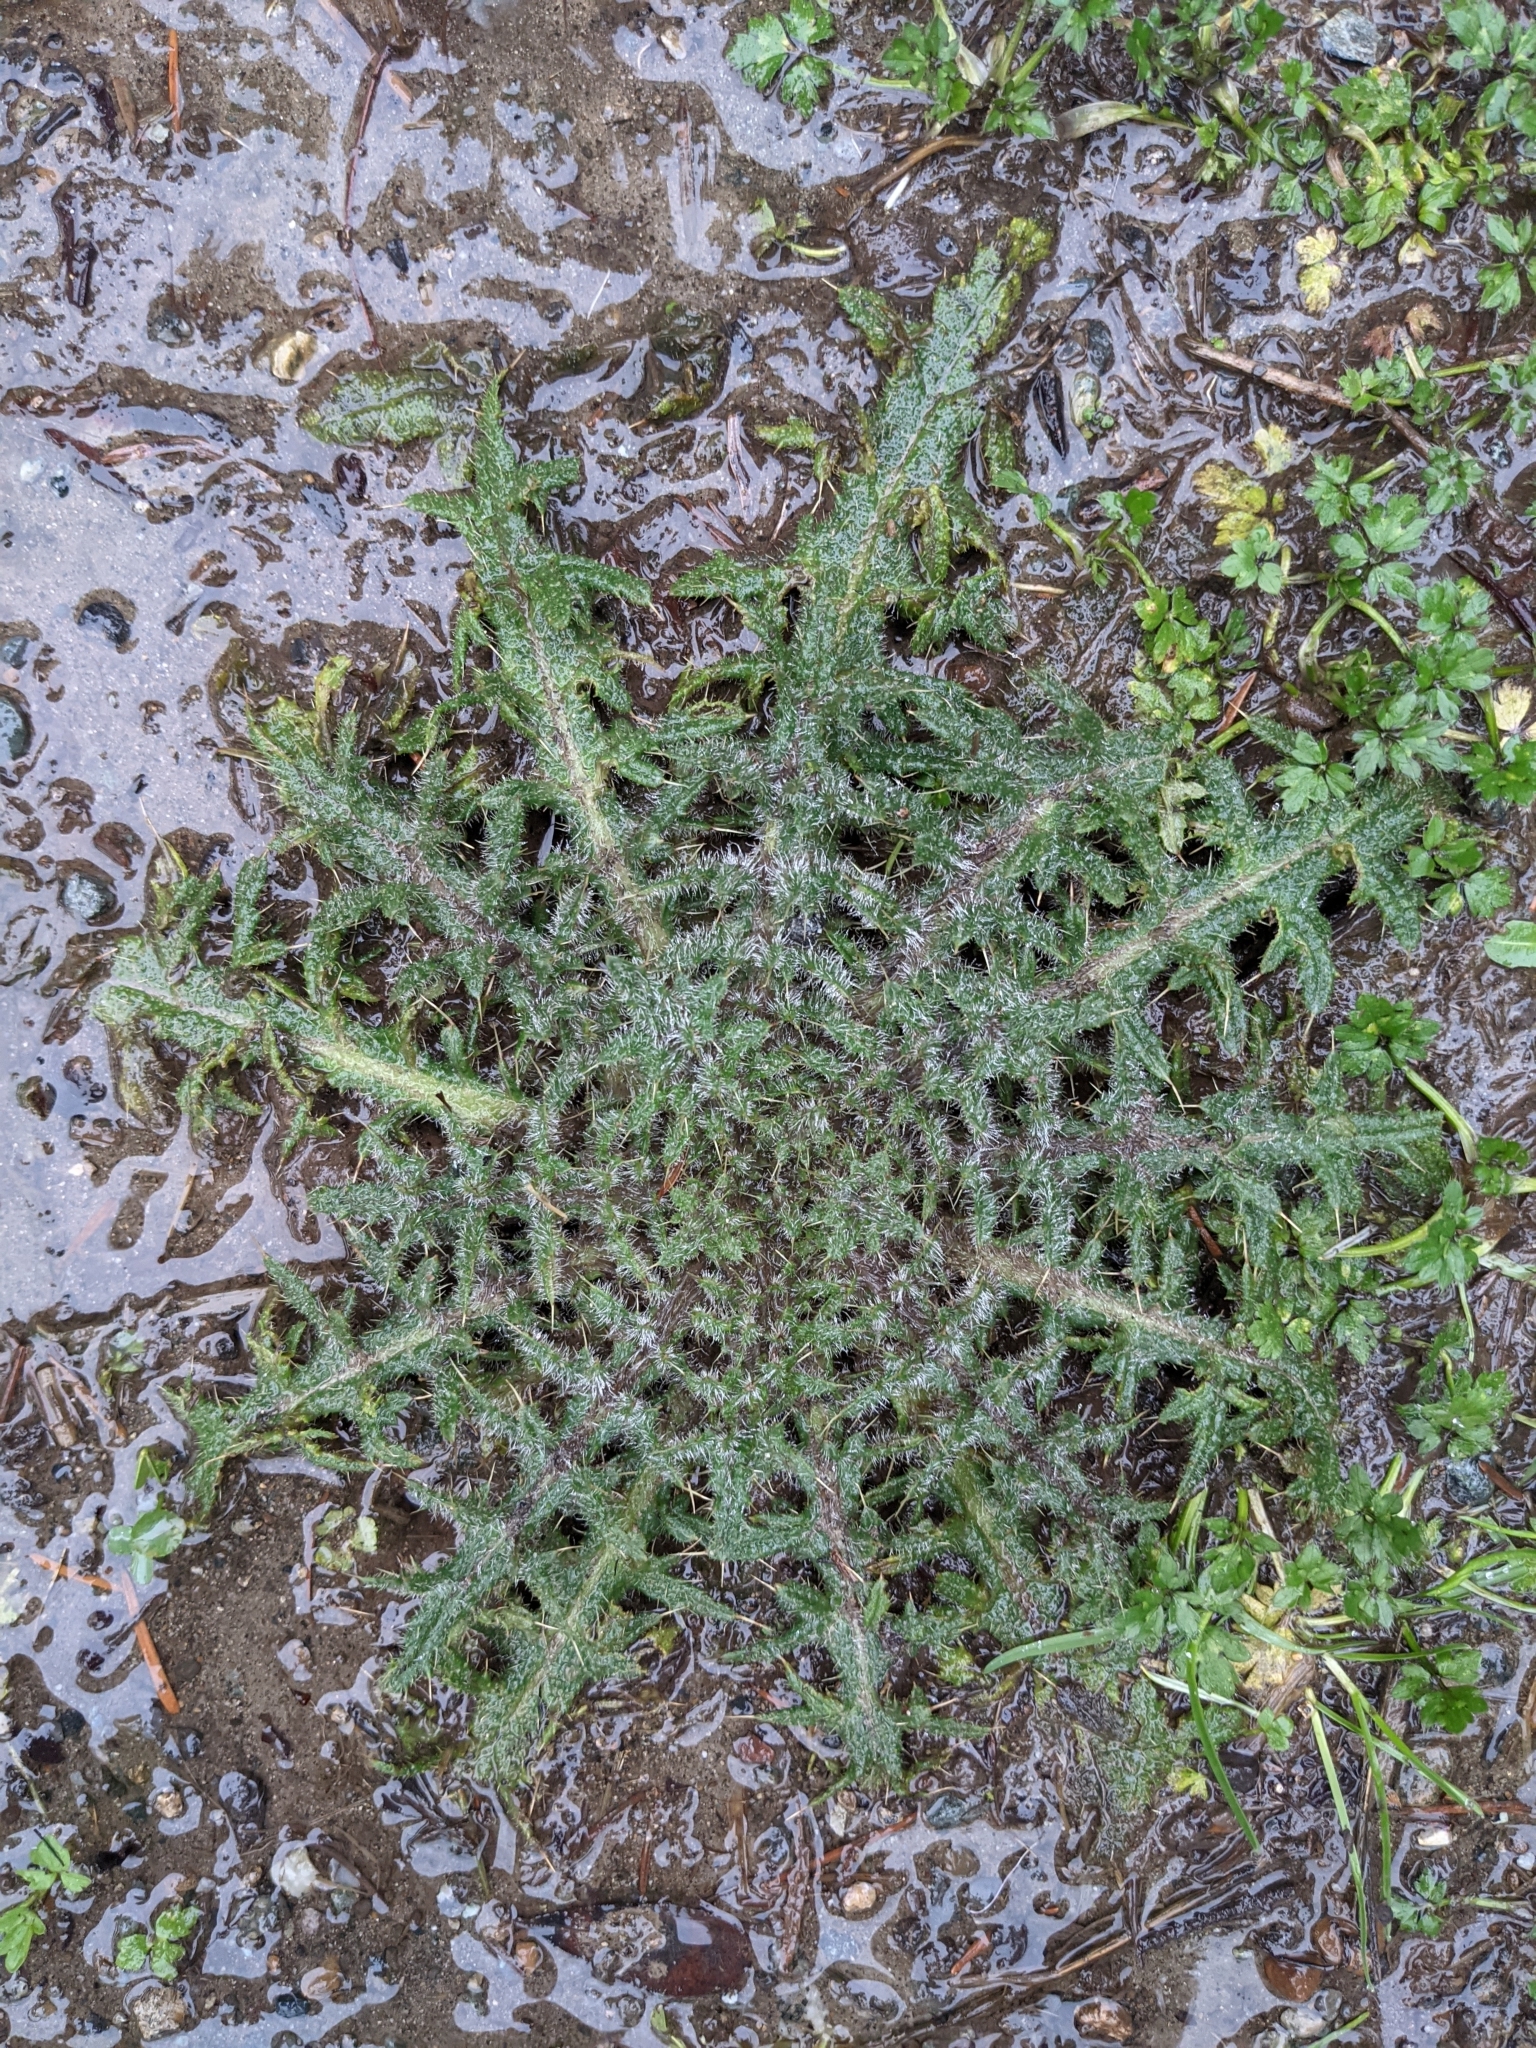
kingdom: Plantae
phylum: Tracheophyta
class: Magnoliopsida
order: Asterales
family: Asteraceae
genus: Cirsium
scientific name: Cirsium vulgare
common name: Bull thistle
